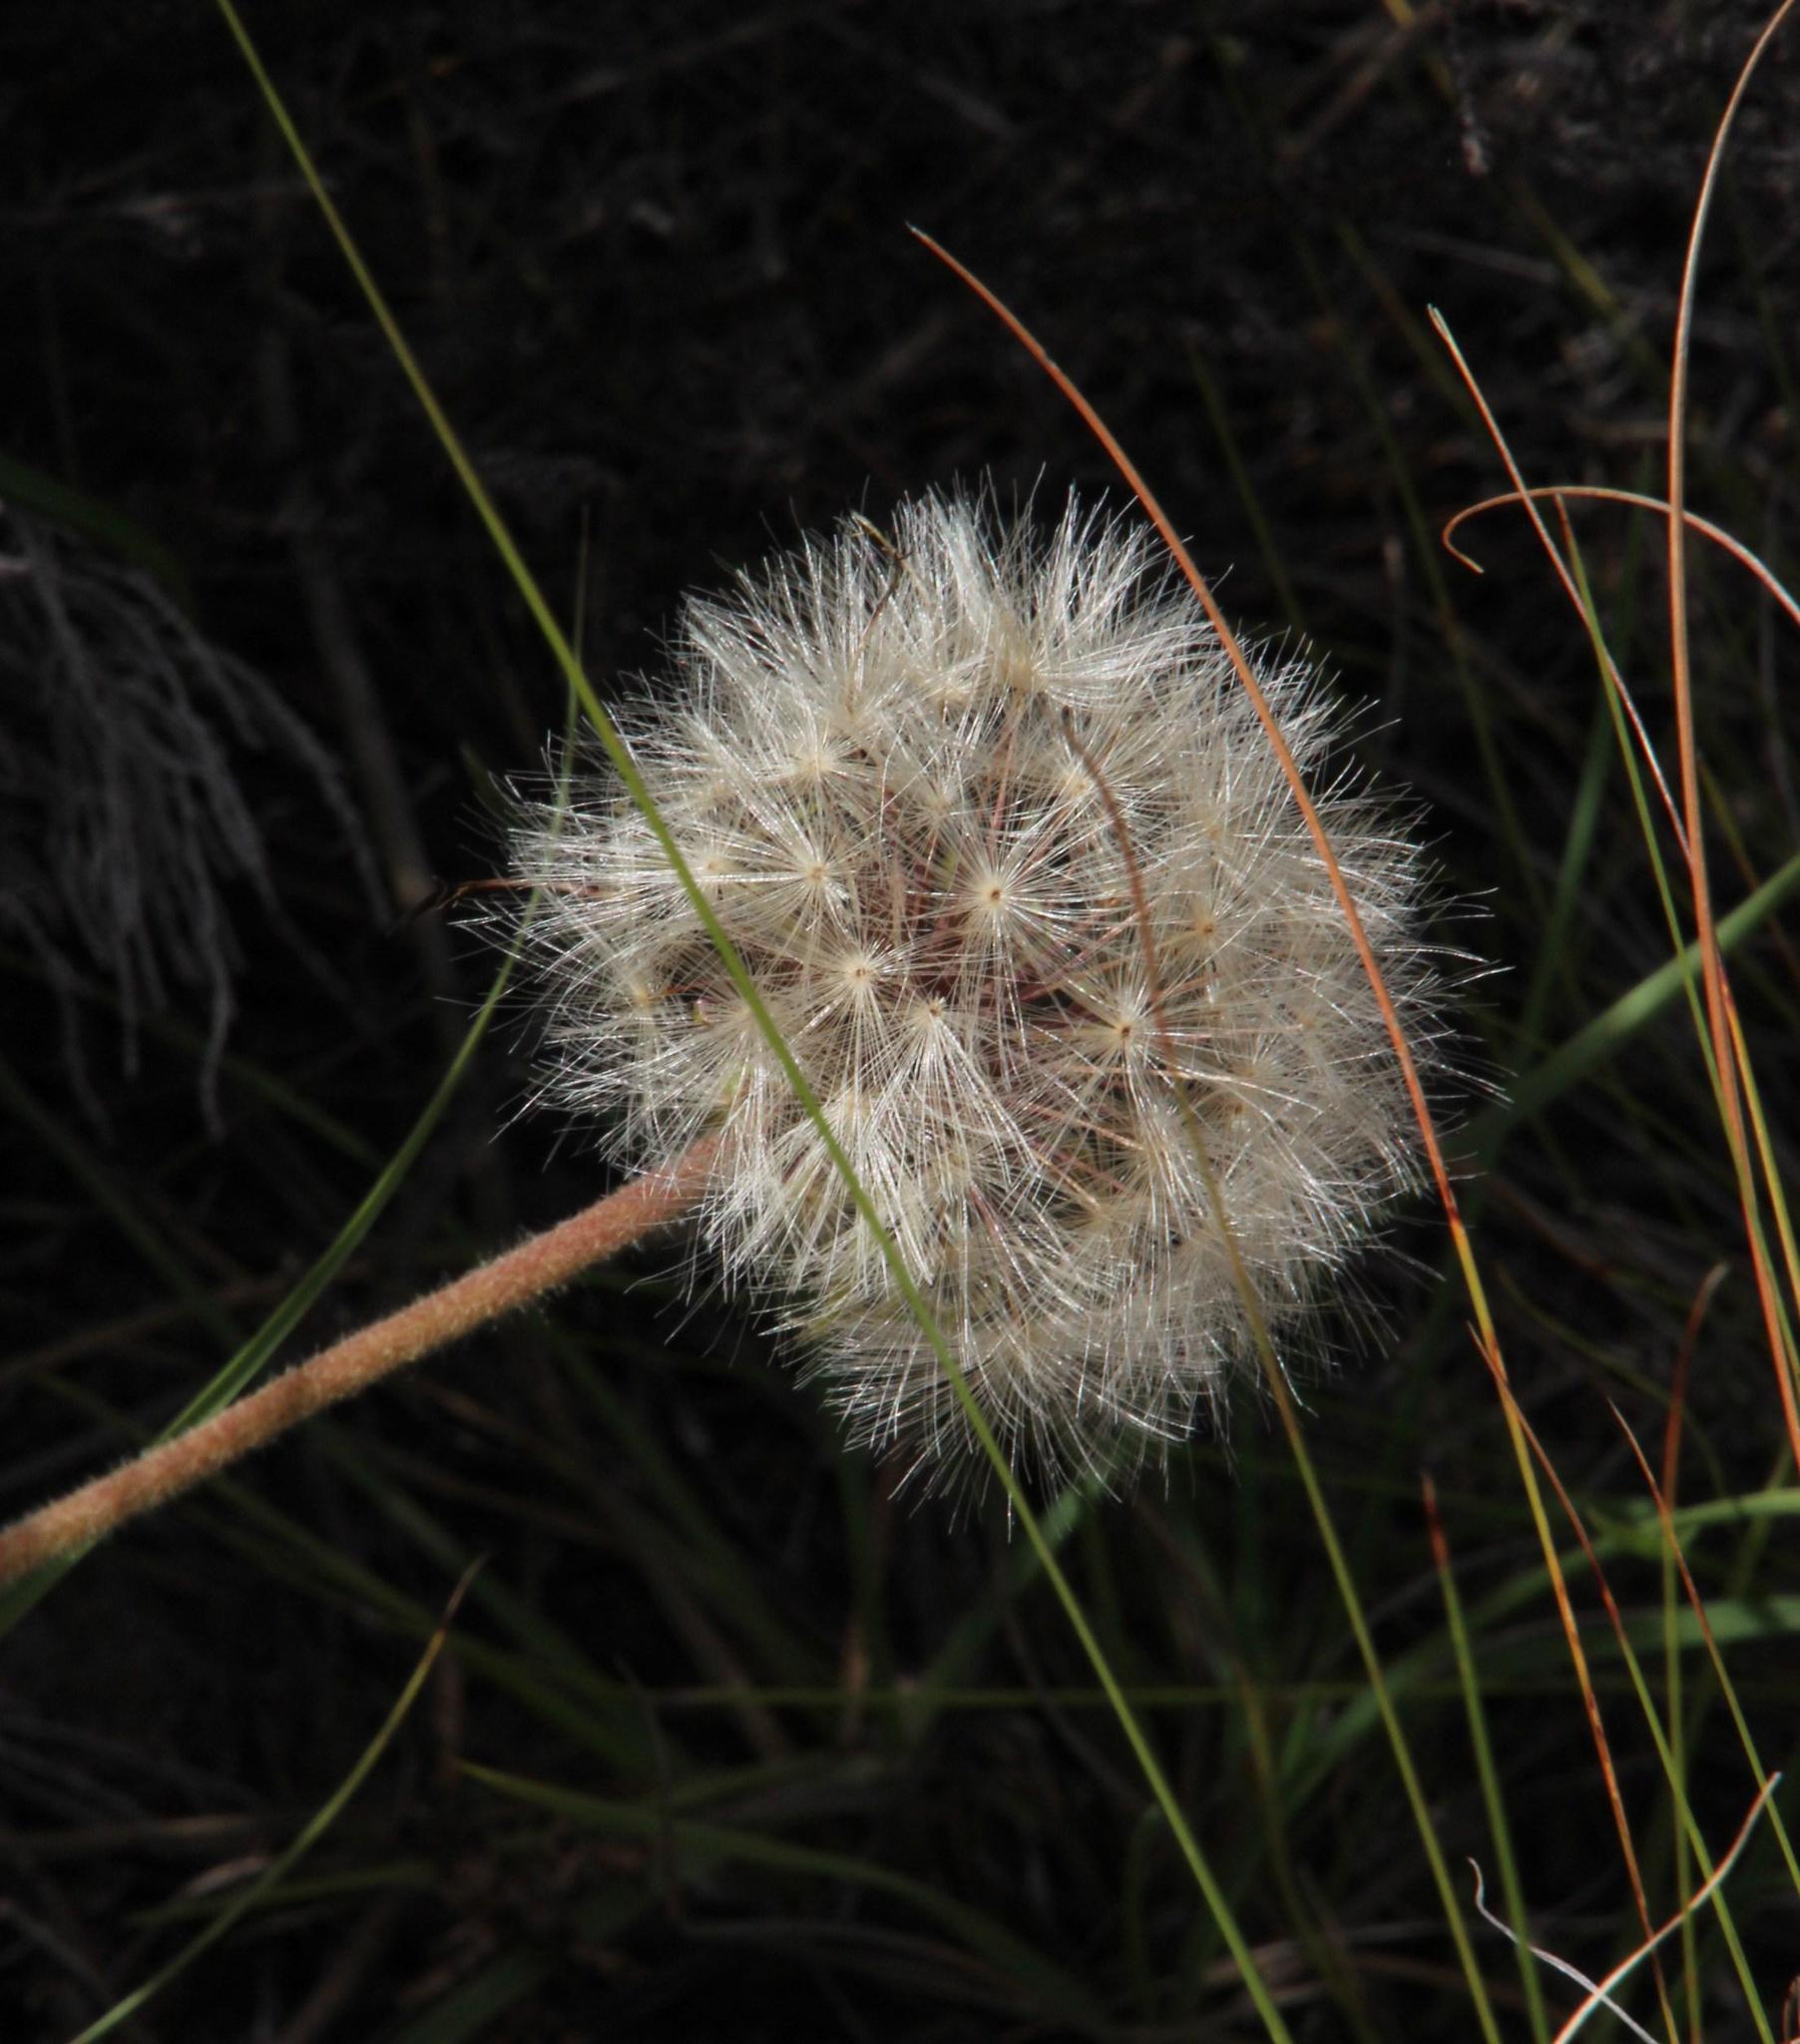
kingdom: Plantae
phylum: Tracheophyta
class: Magnoliopsida
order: Asterales
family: Asteraceae
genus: Piloselloides
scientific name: Piloselloides hirsuta
